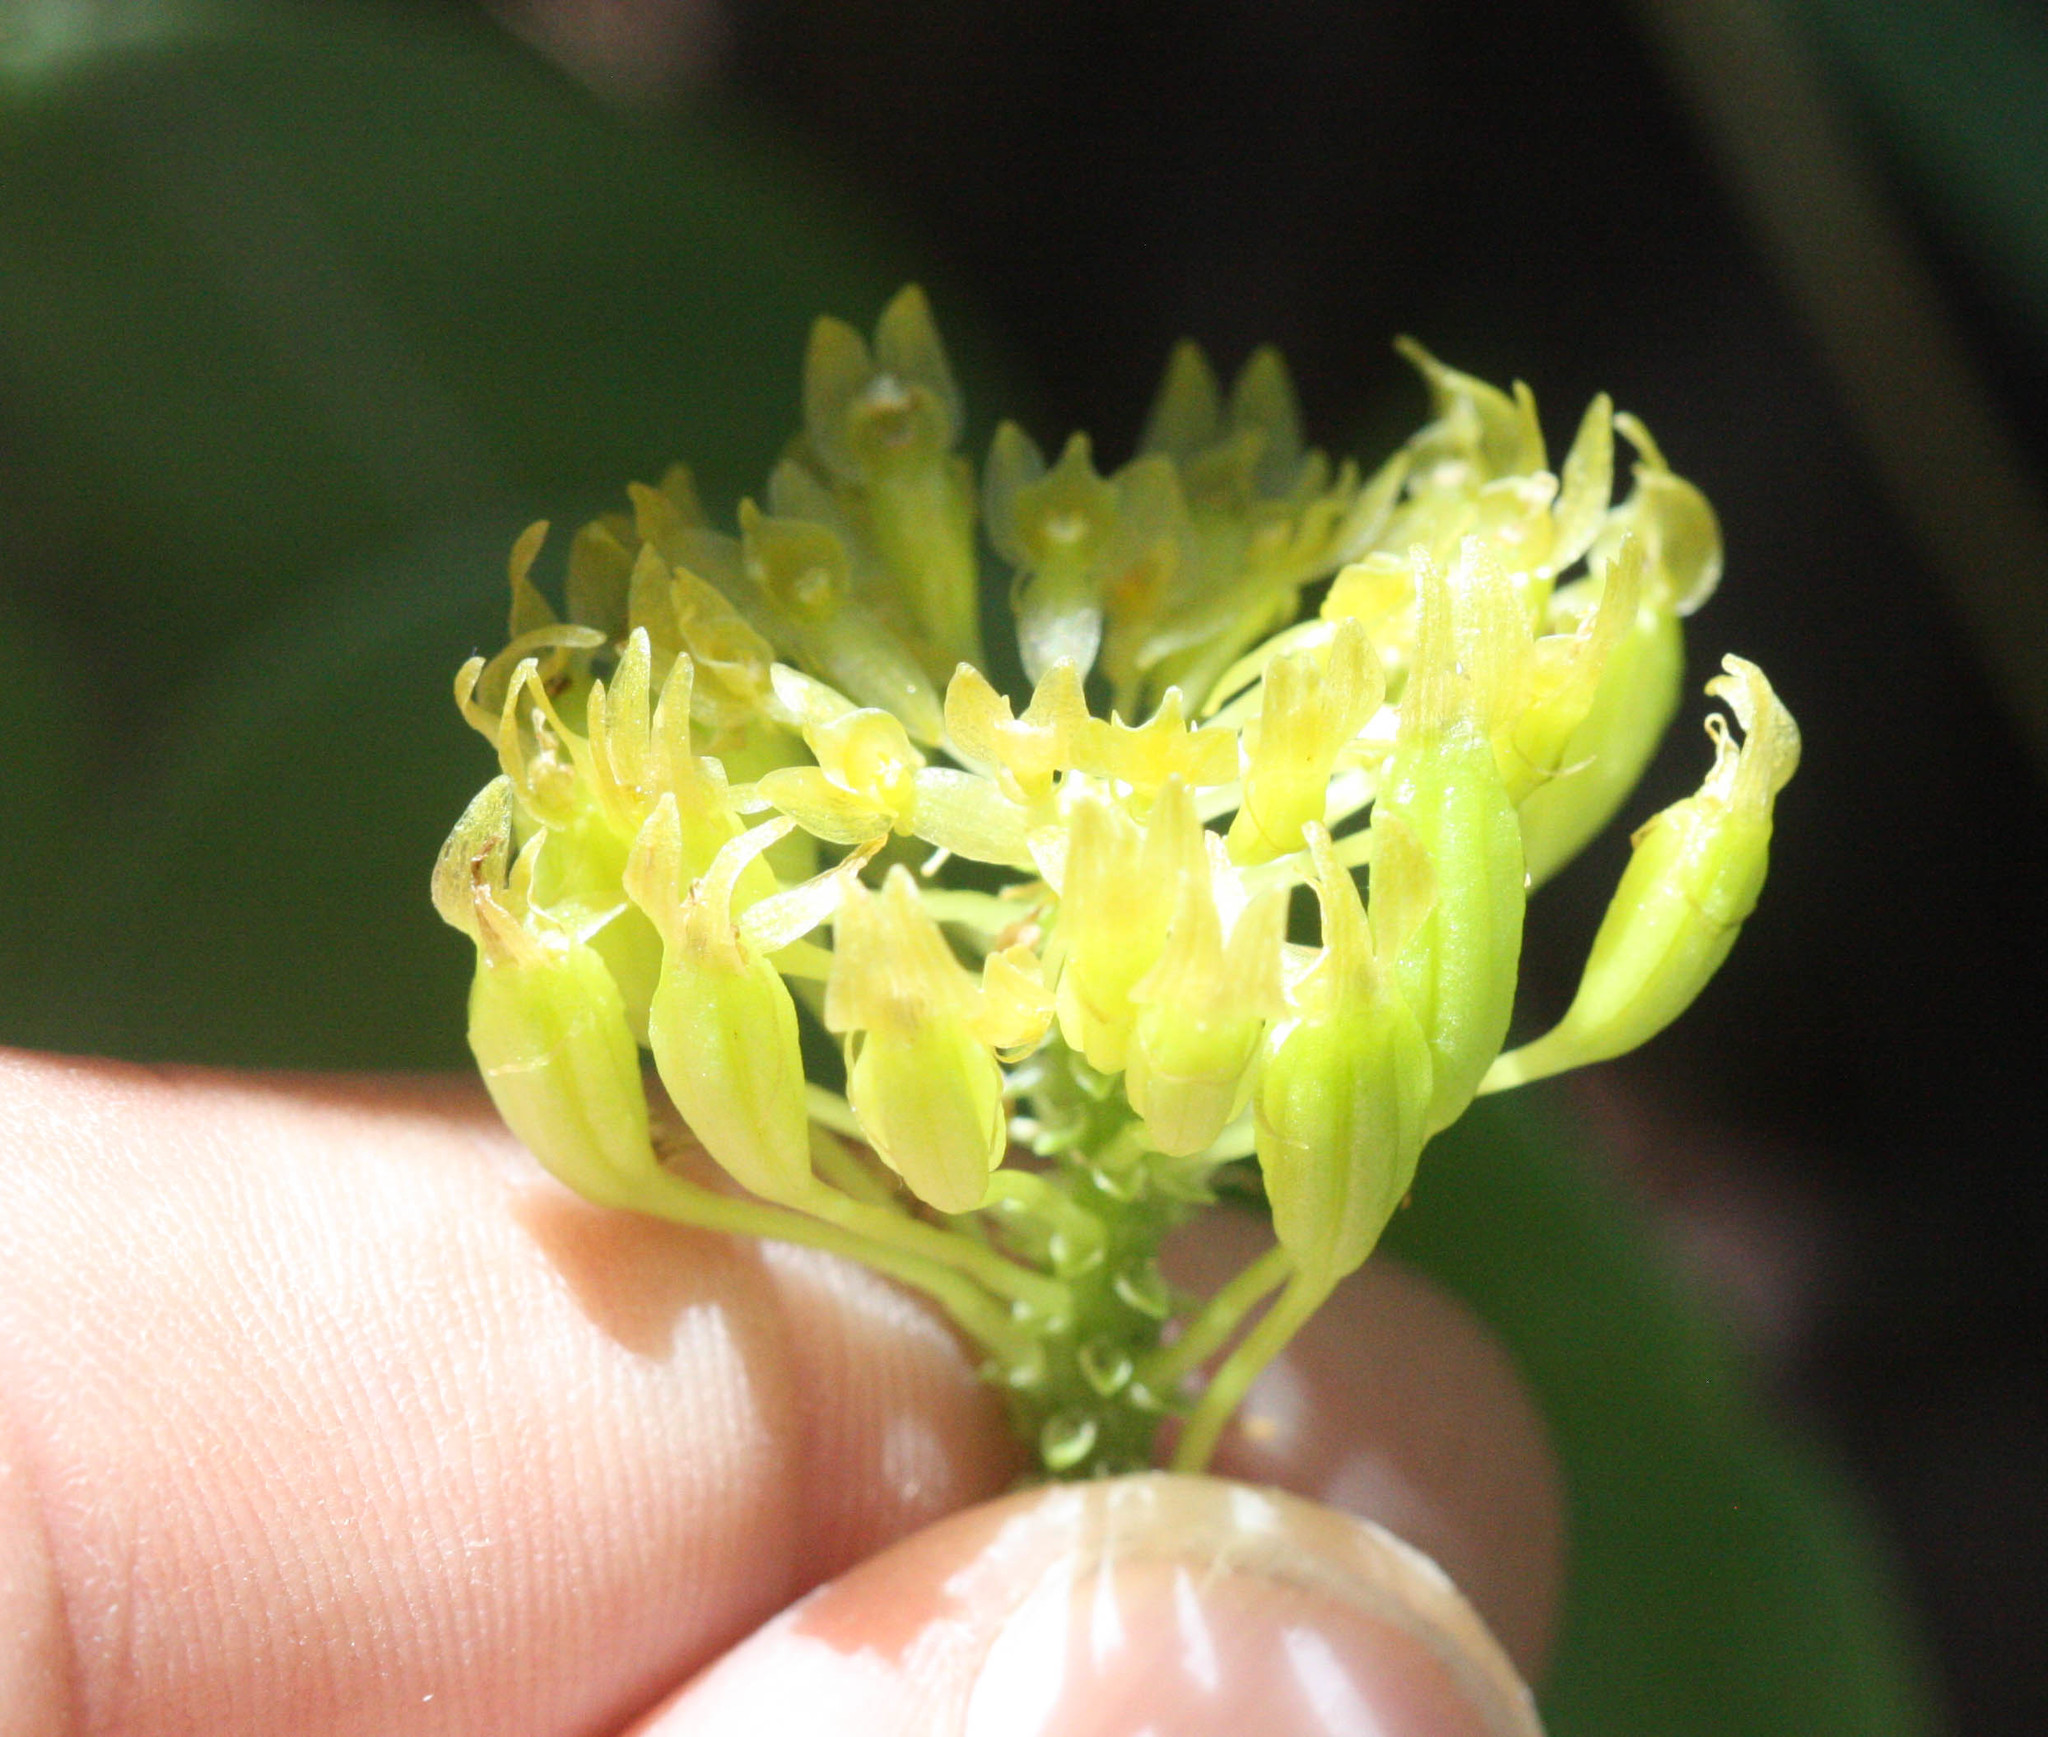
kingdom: Plantae
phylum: Tracheophyta
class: Liliopsida
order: Asparagales
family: Orchidaceae
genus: Malaxis
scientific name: Malaxis brachystachys
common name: Huachuca adder's-mouth
